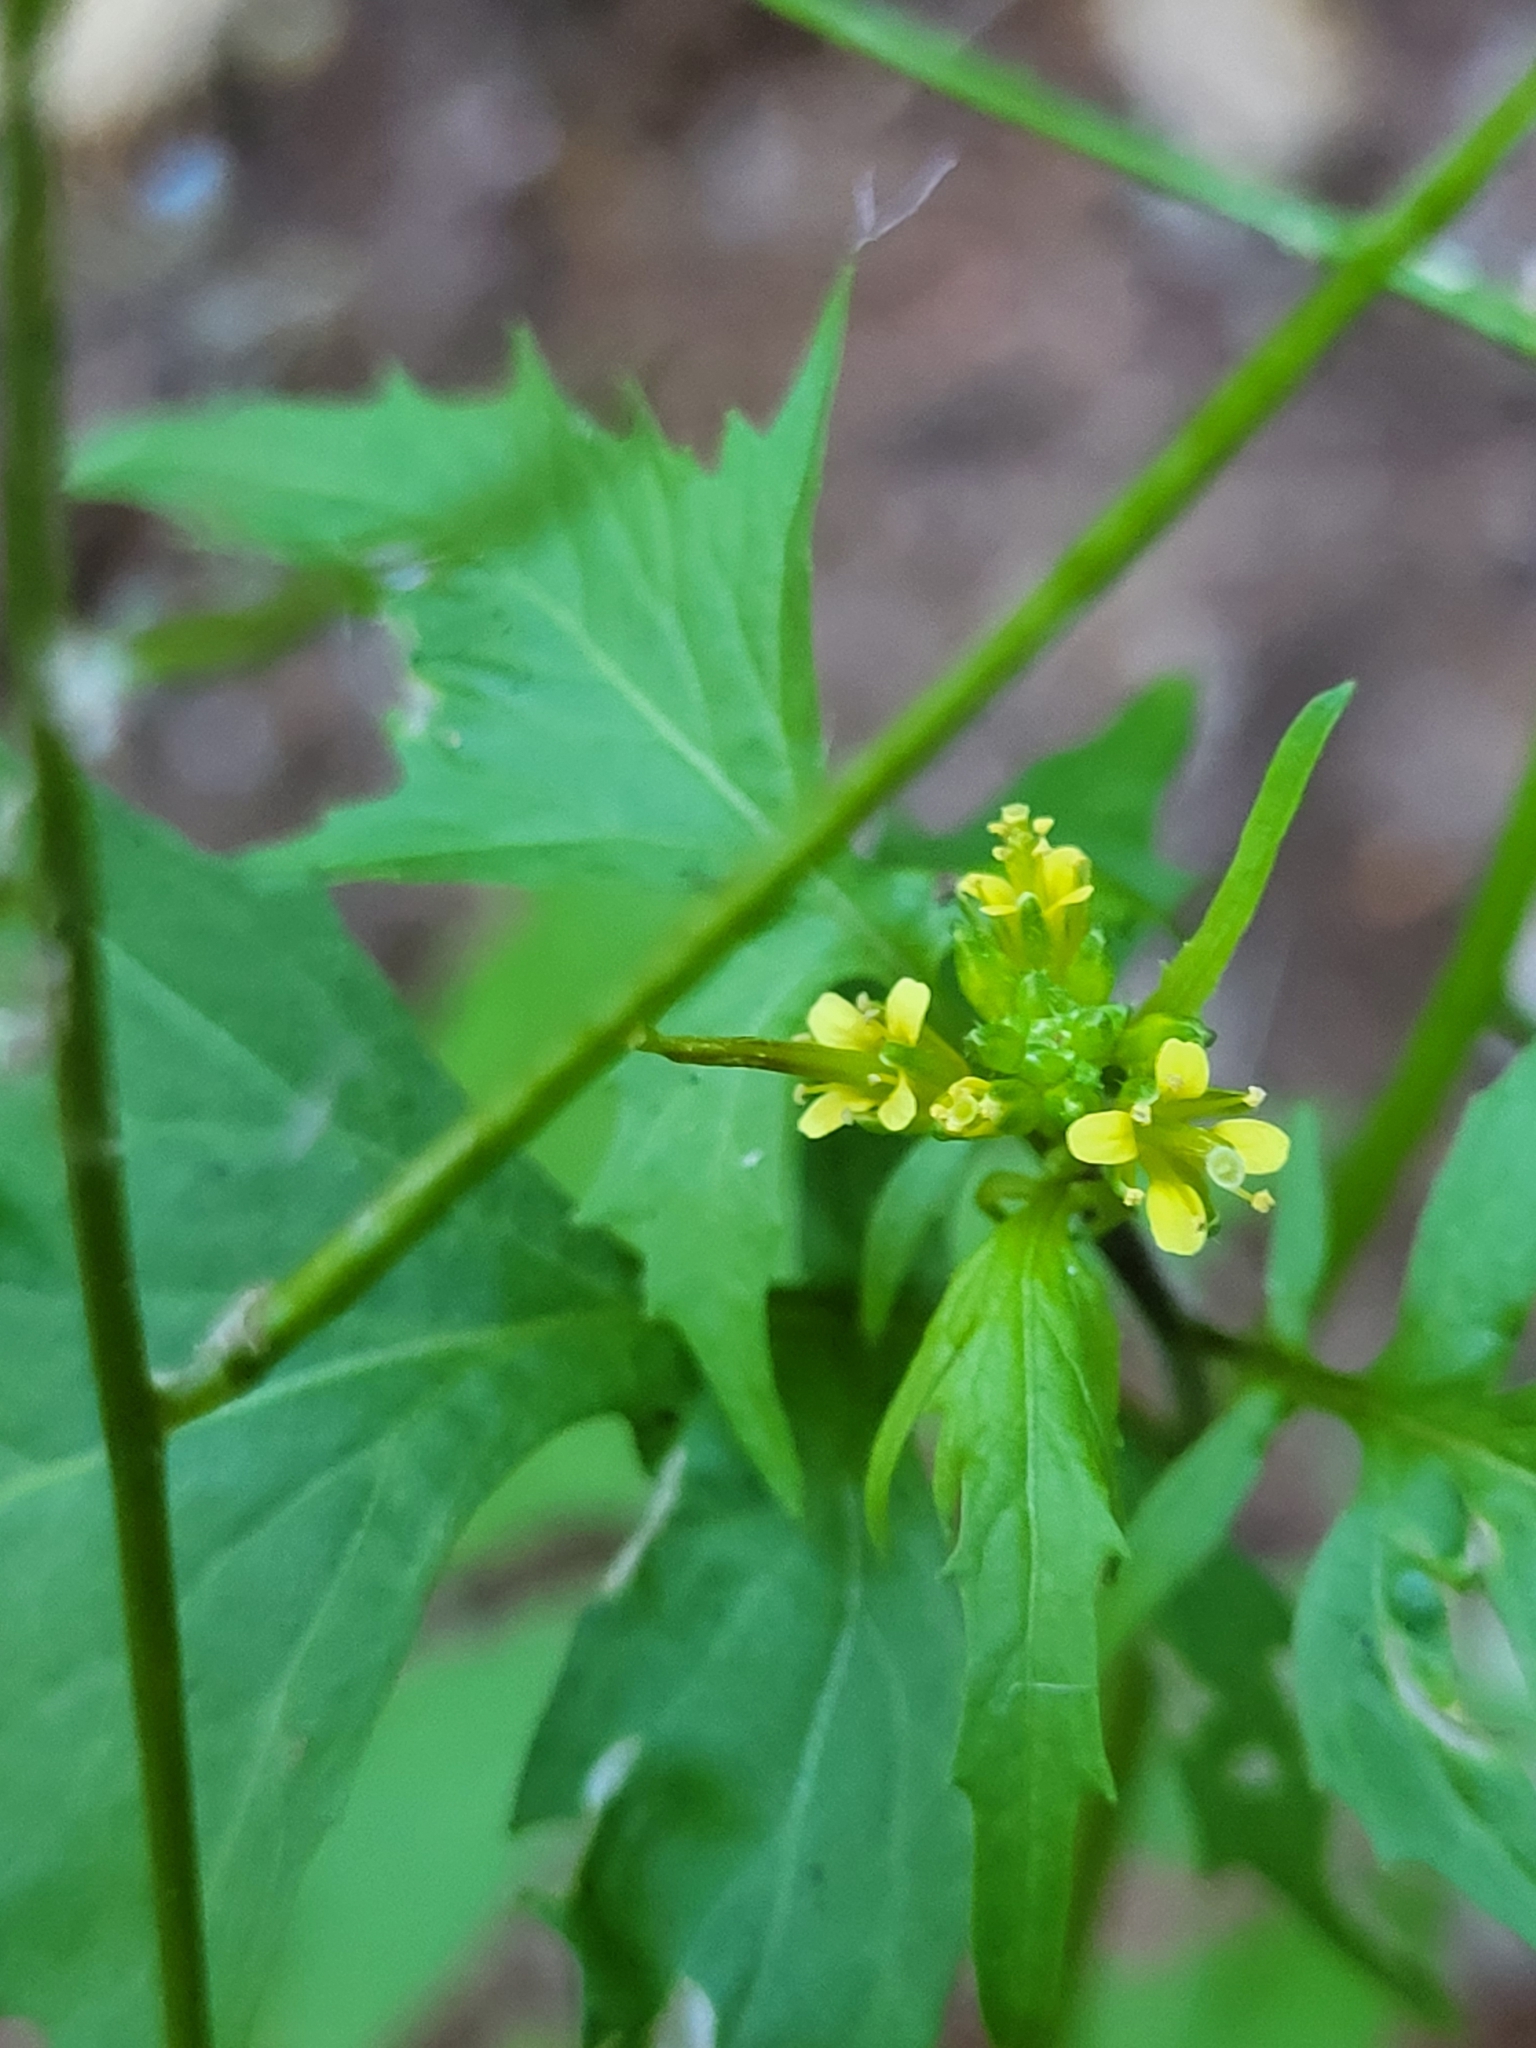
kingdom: Plantae
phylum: Tracheophyta
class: Magnoliopsida
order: Brassicales
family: Brassicaceae
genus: Sisymbrium
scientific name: Sisymbrium erysimoides
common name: French rocket
